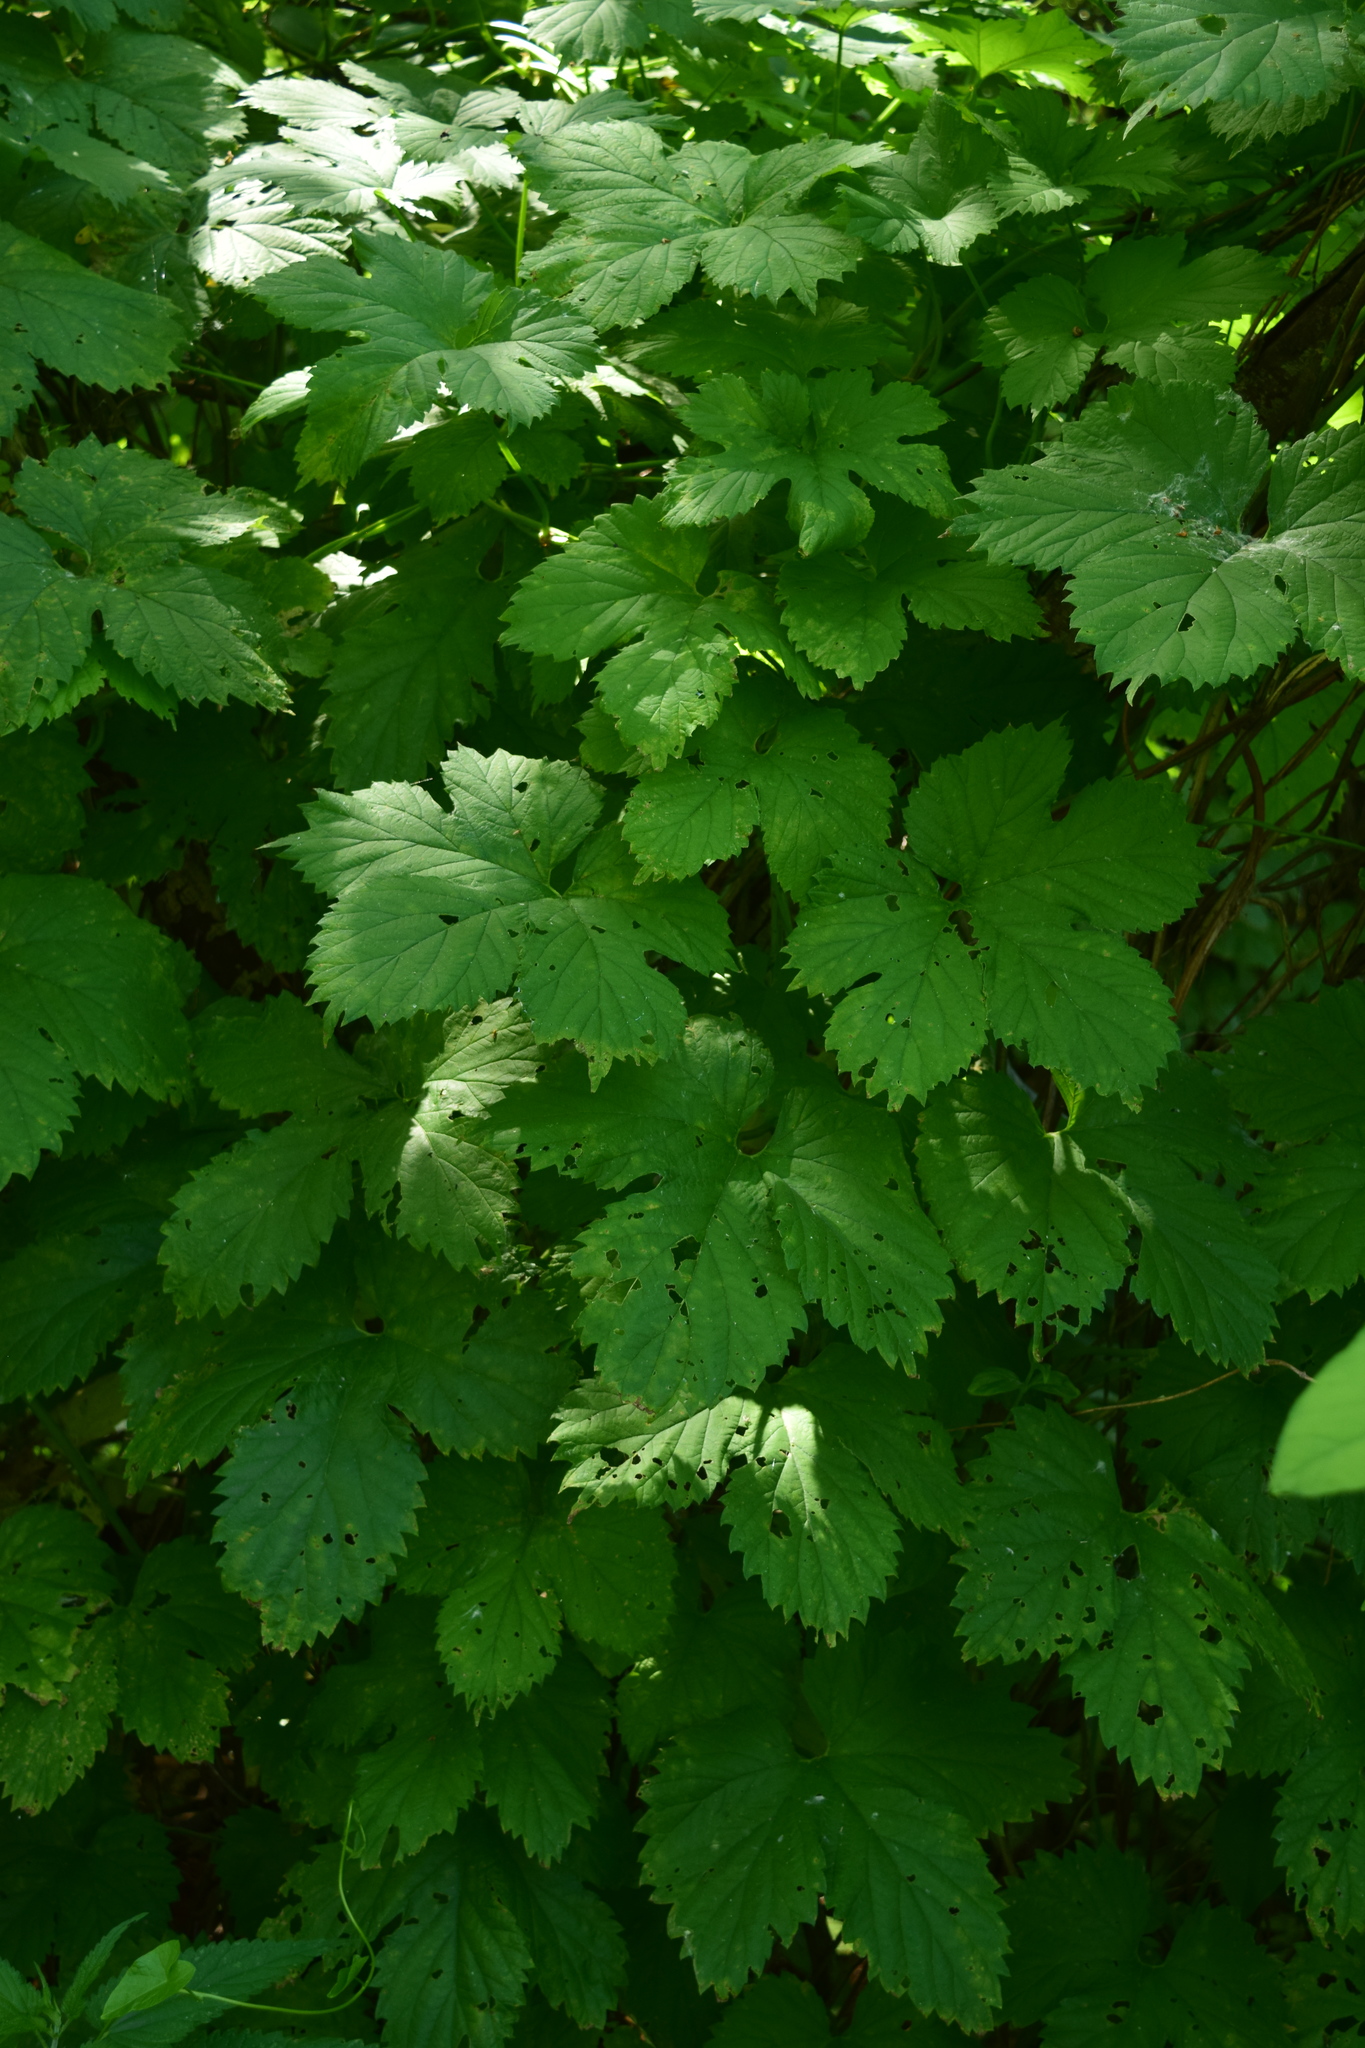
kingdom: Plantae
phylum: Tracheophyta
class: Magnoliopsida
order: Rosales
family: Cannabaceae
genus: Humulus
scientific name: Humulus lupulus
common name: Hop
